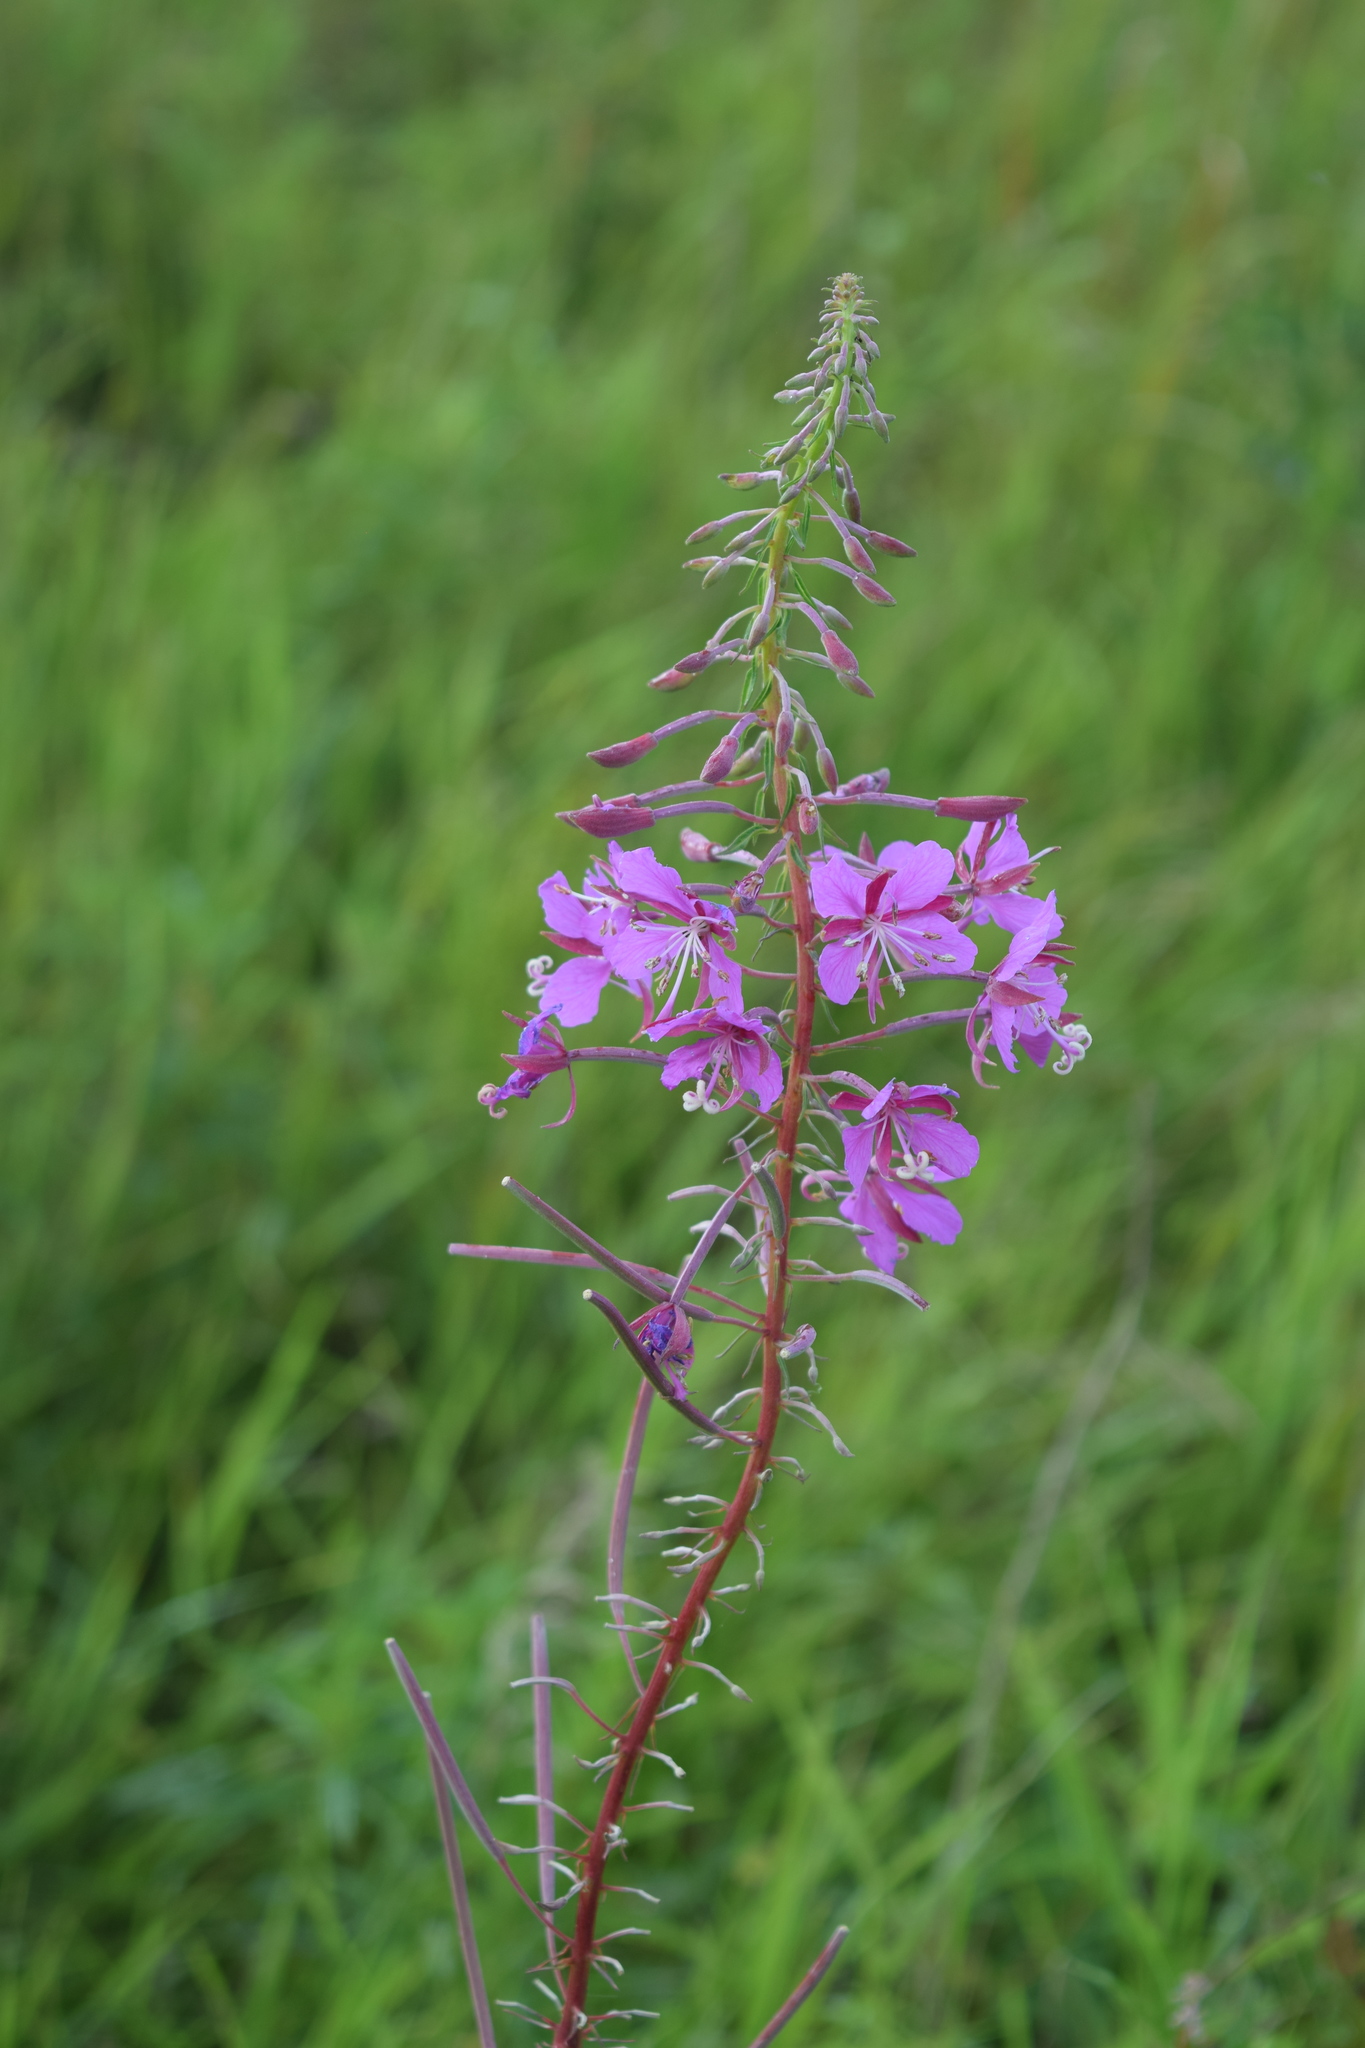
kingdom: Plantae
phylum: Tracheophyta
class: Magnoliopsida
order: Myrtales
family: Onagraceae
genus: Chamaenerion
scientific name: Chamaenerion angustifolium
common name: Fireweed
